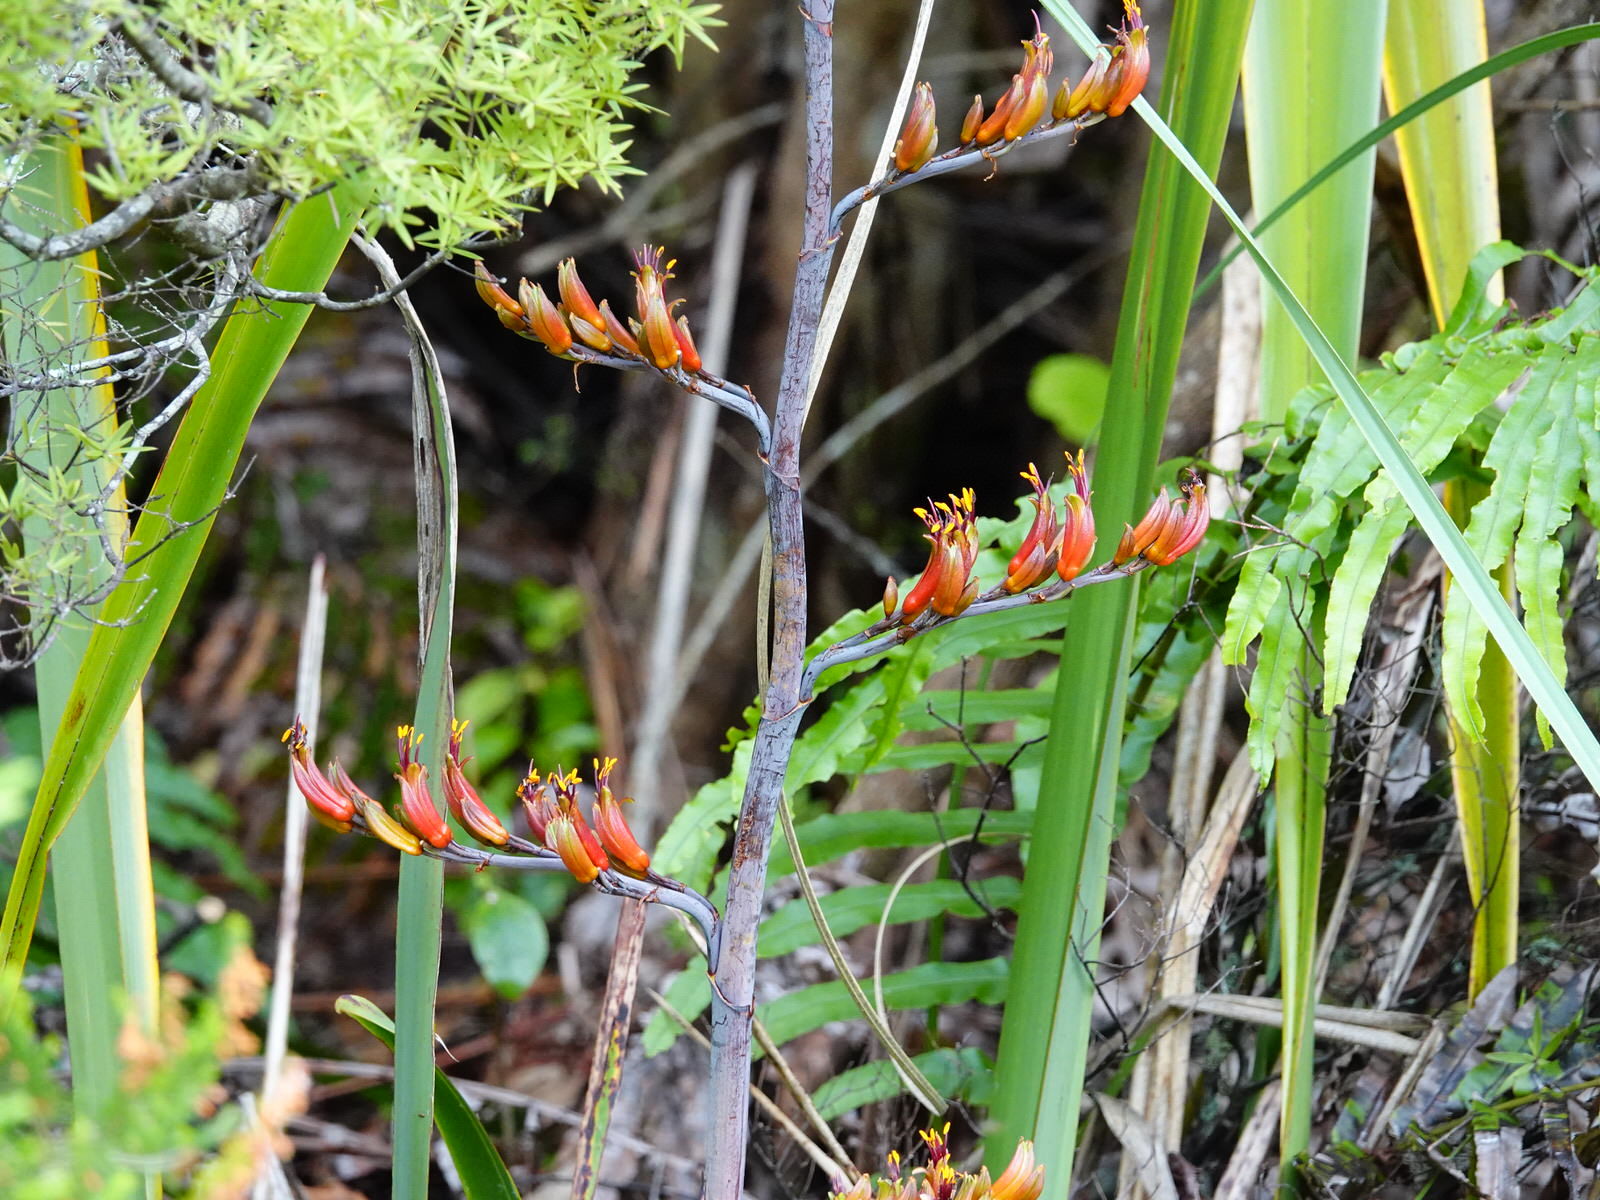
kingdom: Plantae
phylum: Tracheophyta
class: Liliopsida
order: Asparagales
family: Asphodelaceae
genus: Phormium
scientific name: Phormium tenax
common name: New zealand flax
